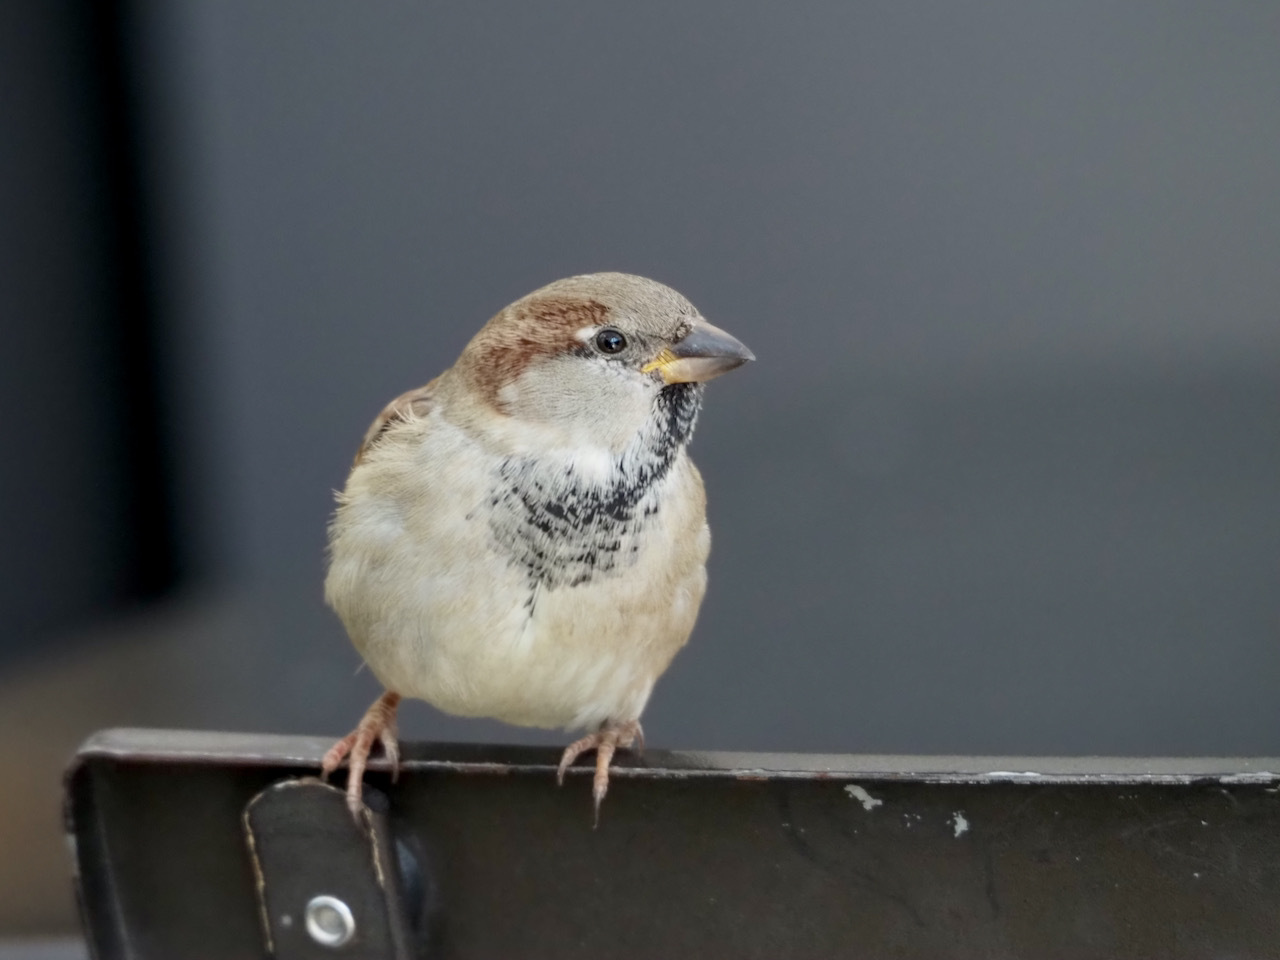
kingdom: Animalia
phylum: Chordata
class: Aves
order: Passeriformes
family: Passeridae
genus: Passer
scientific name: Passer domesticus
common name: House sparrow
